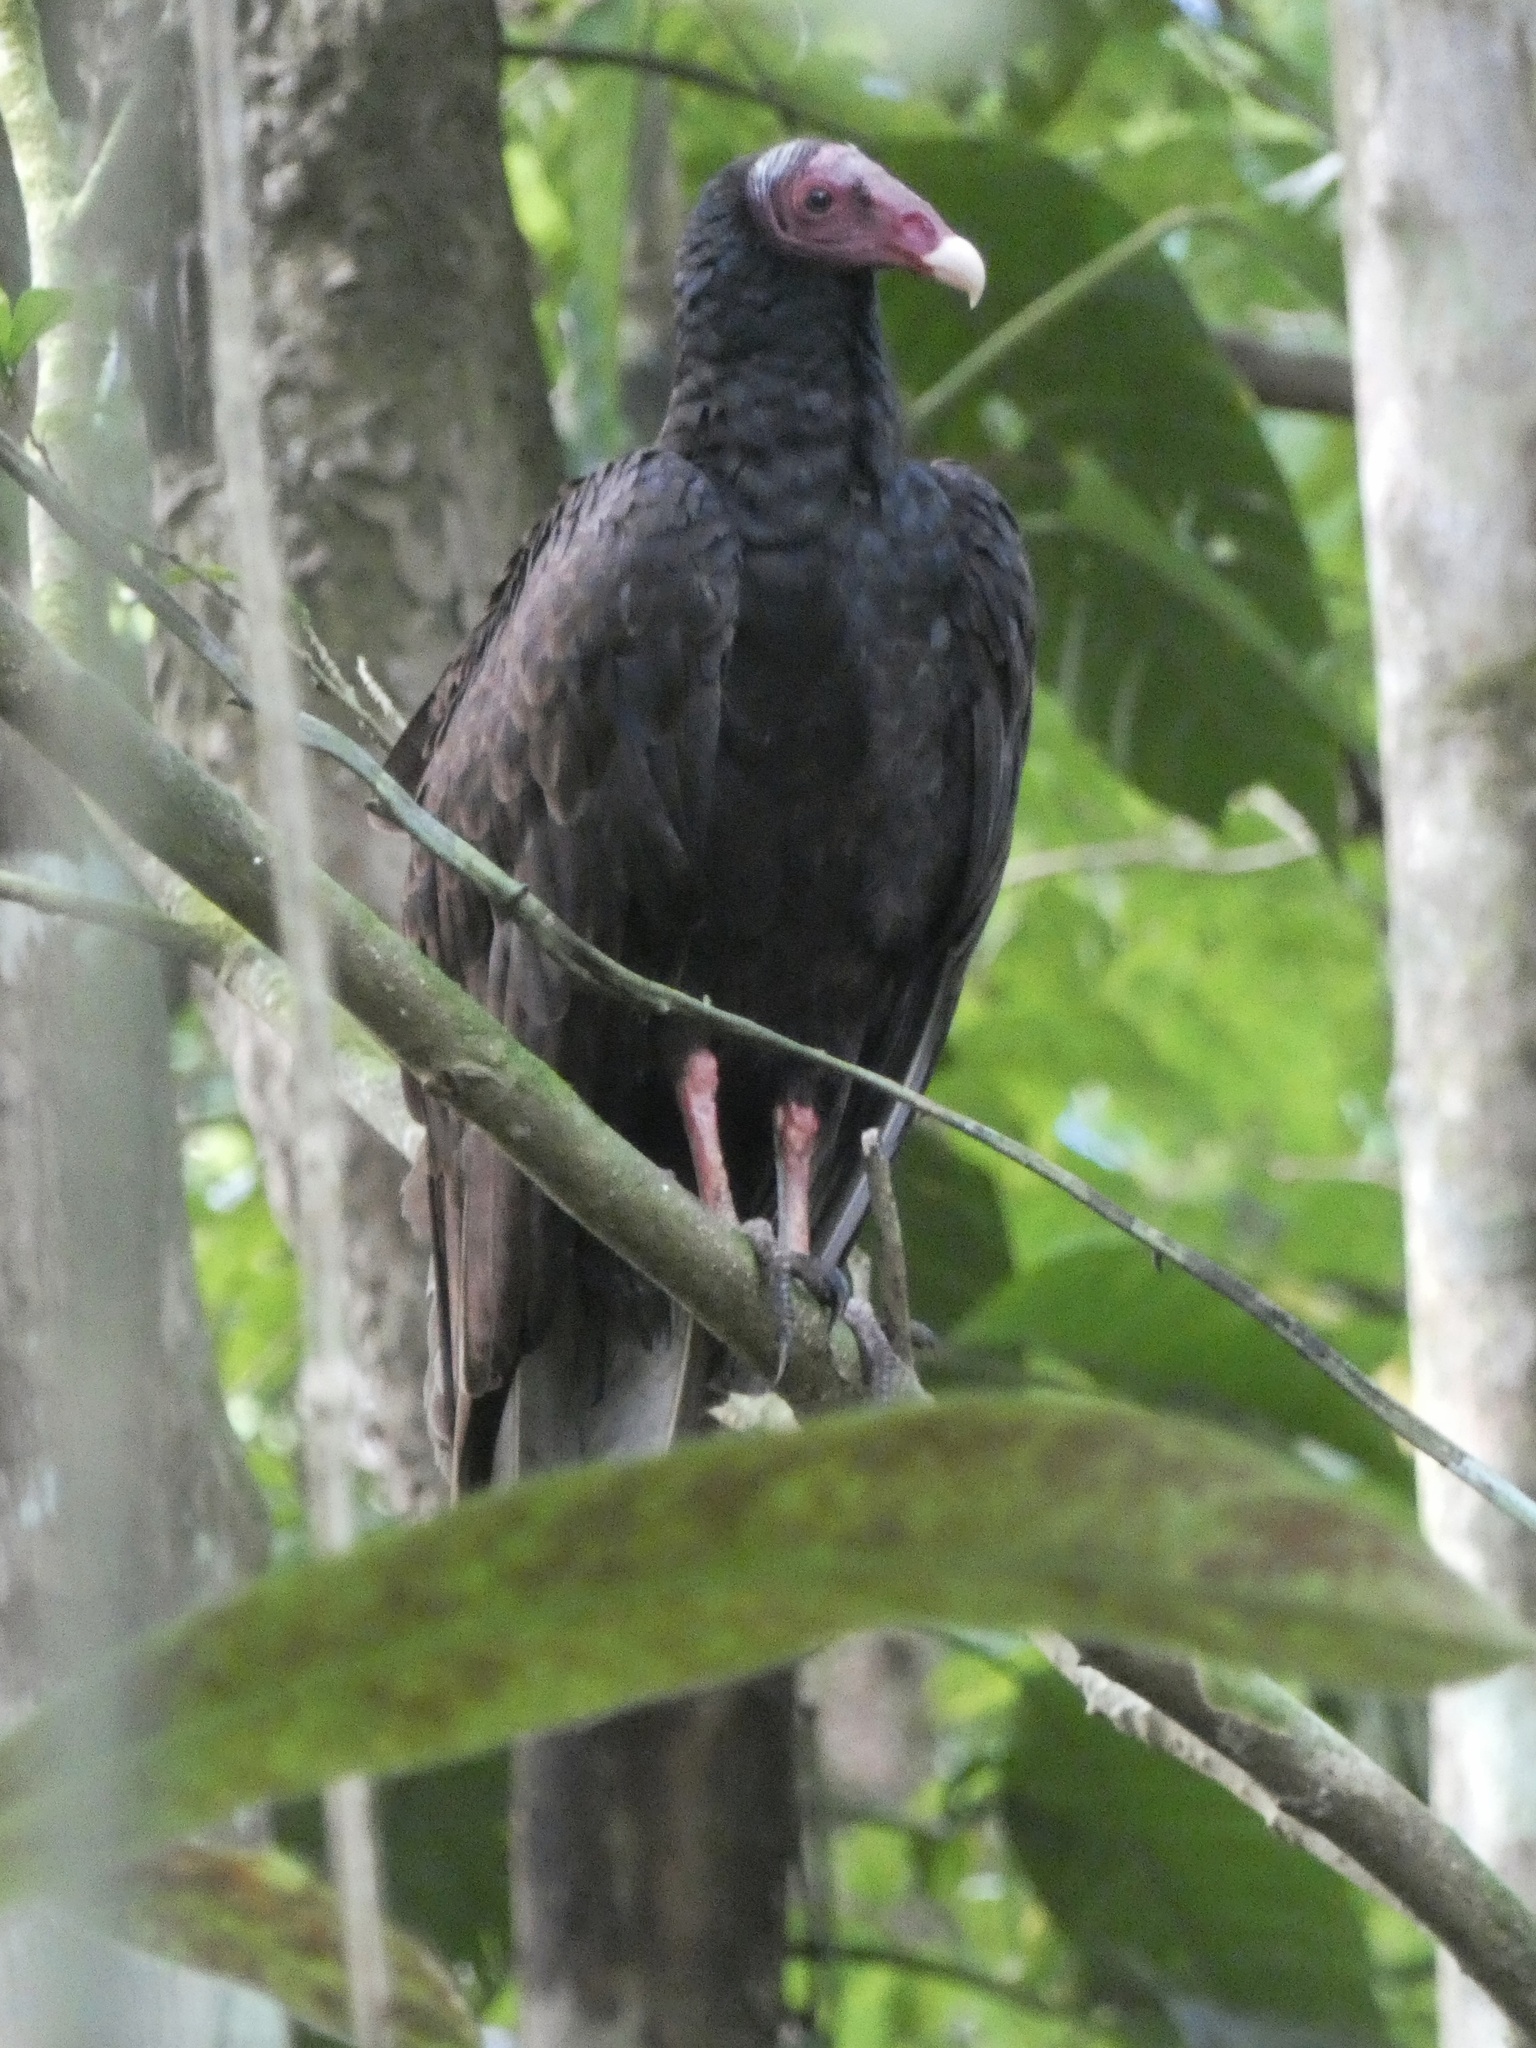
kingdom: Animalia
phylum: Chordata
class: Aves
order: Accipitriformes
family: Cathartidae
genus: Cathartes
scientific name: Cathartes aura
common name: Turkey vulture
